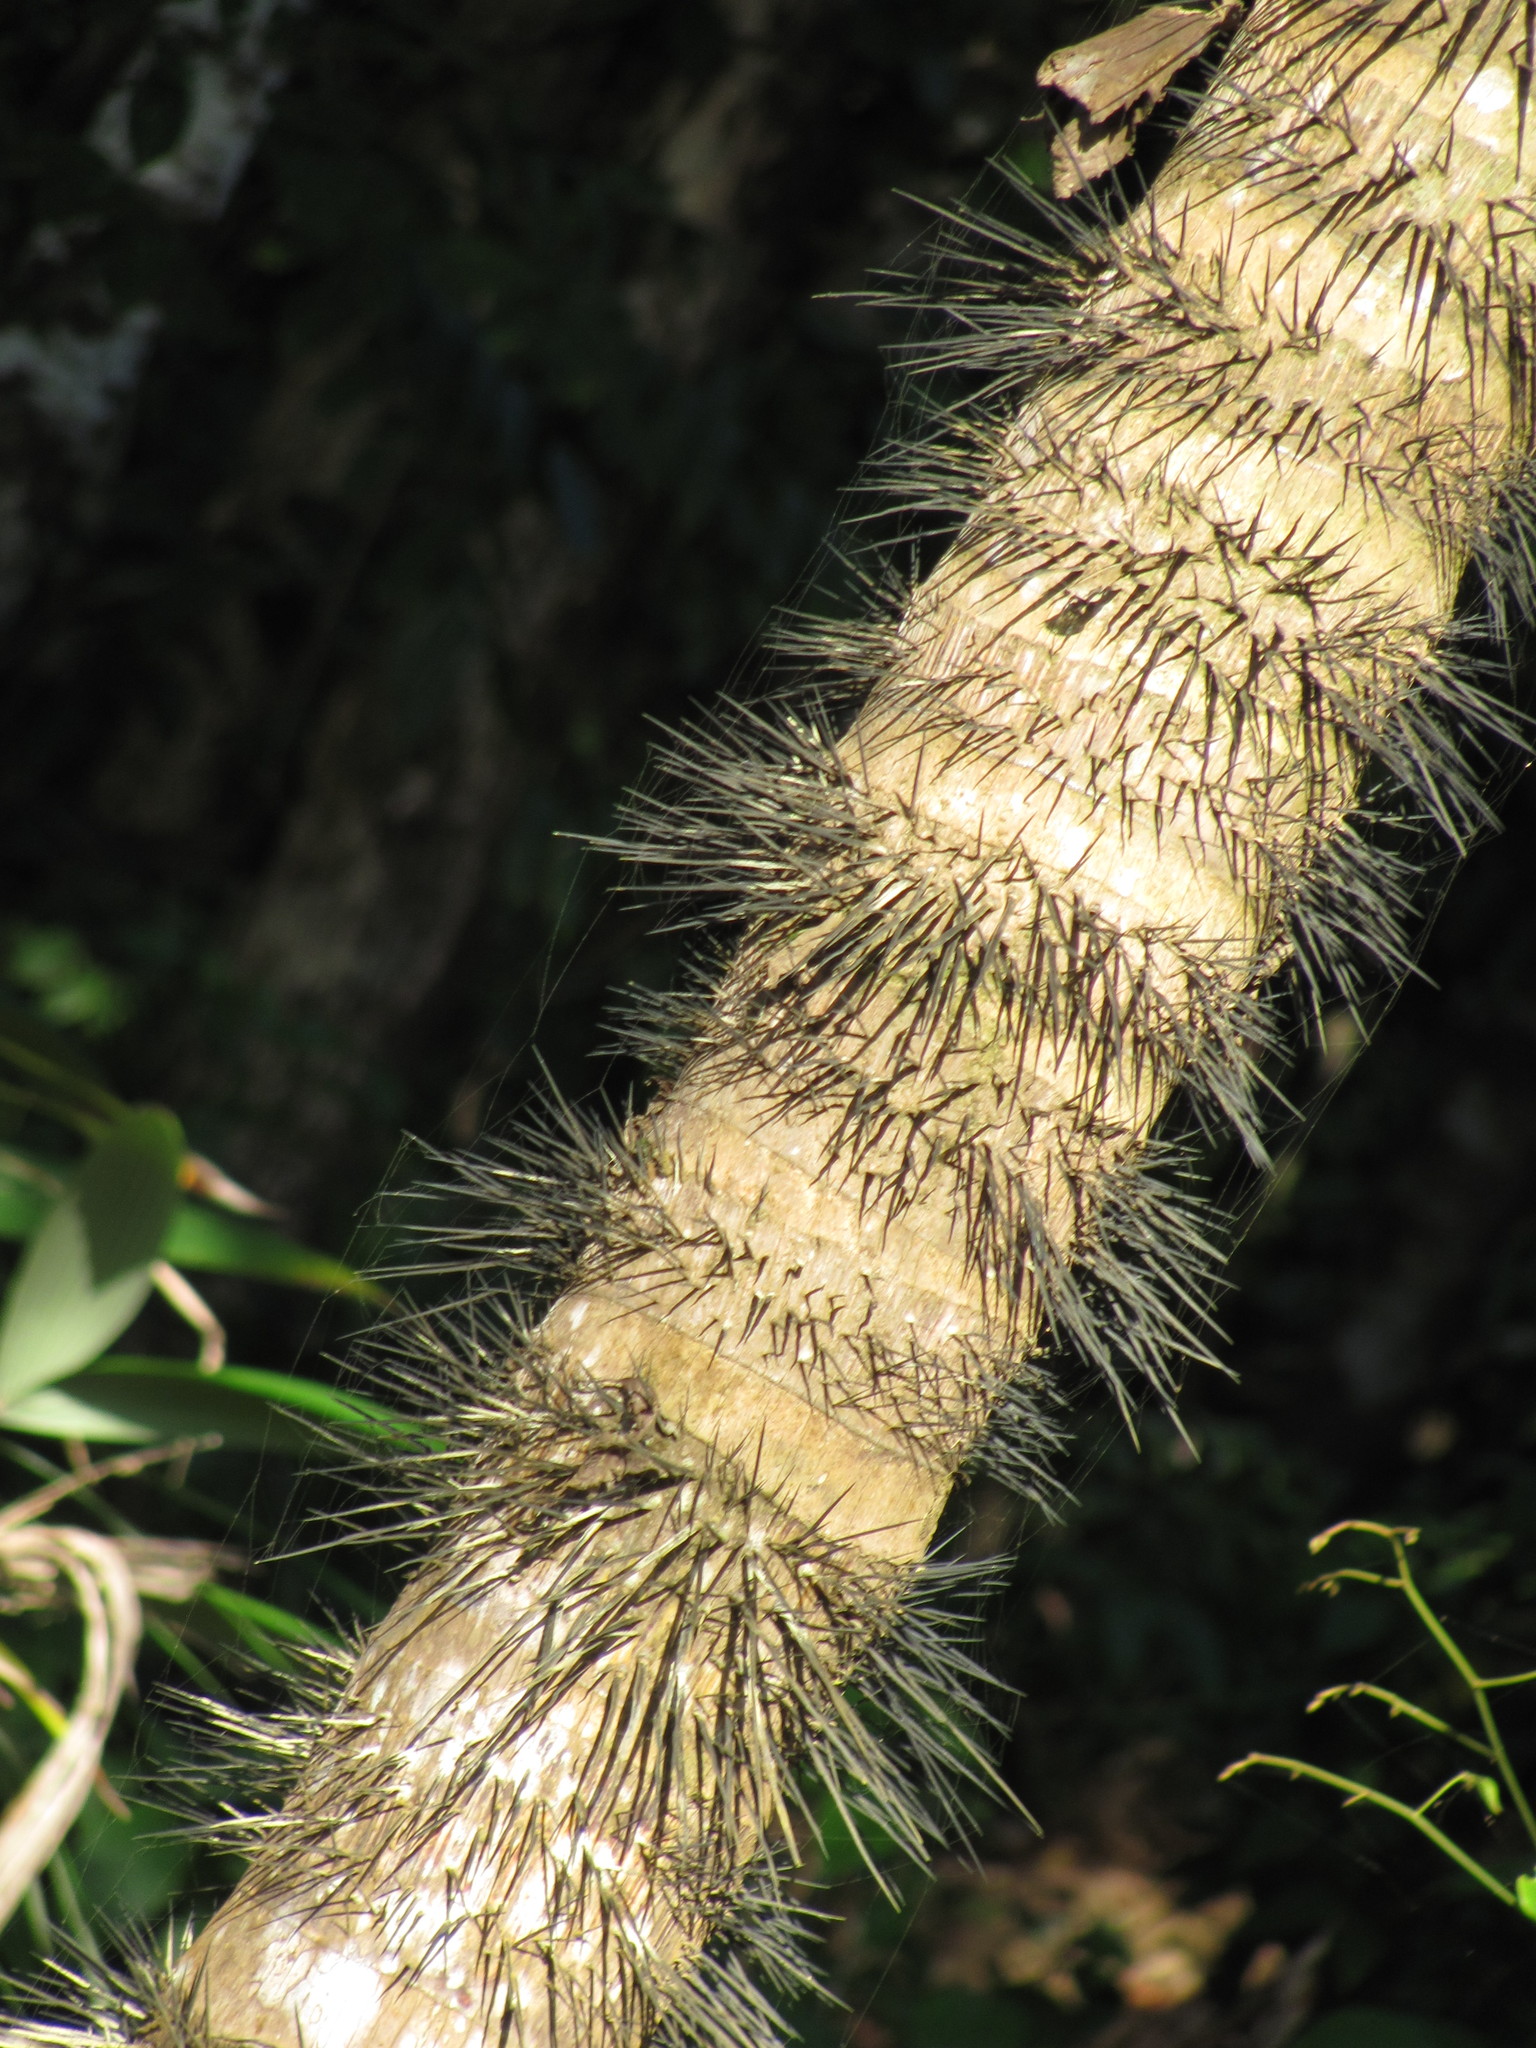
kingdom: Plantae
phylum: Tracheophyta
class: Liliopsida
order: Arecales
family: Arecaceae
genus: Bactris
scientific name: Bactris gasipaes
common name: Peach palm
